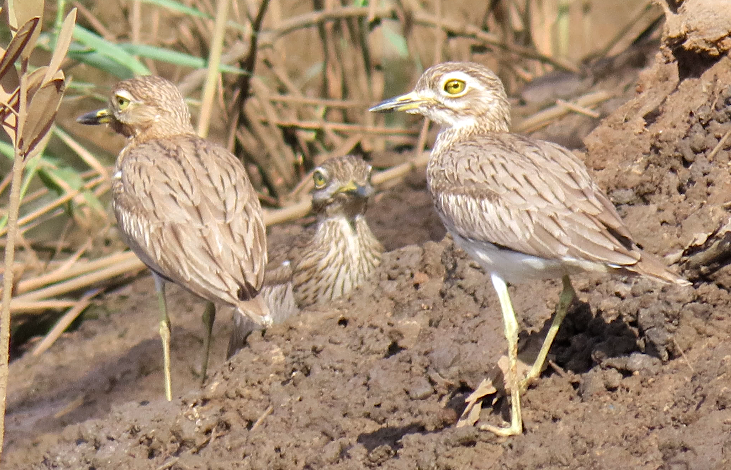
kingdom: Animalia
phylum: Chordata
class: Aves
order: Charadriiformes
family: Burhinidae
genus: Burhinus
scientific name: Burhinus senegalensis
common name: Senegal thick-knee
